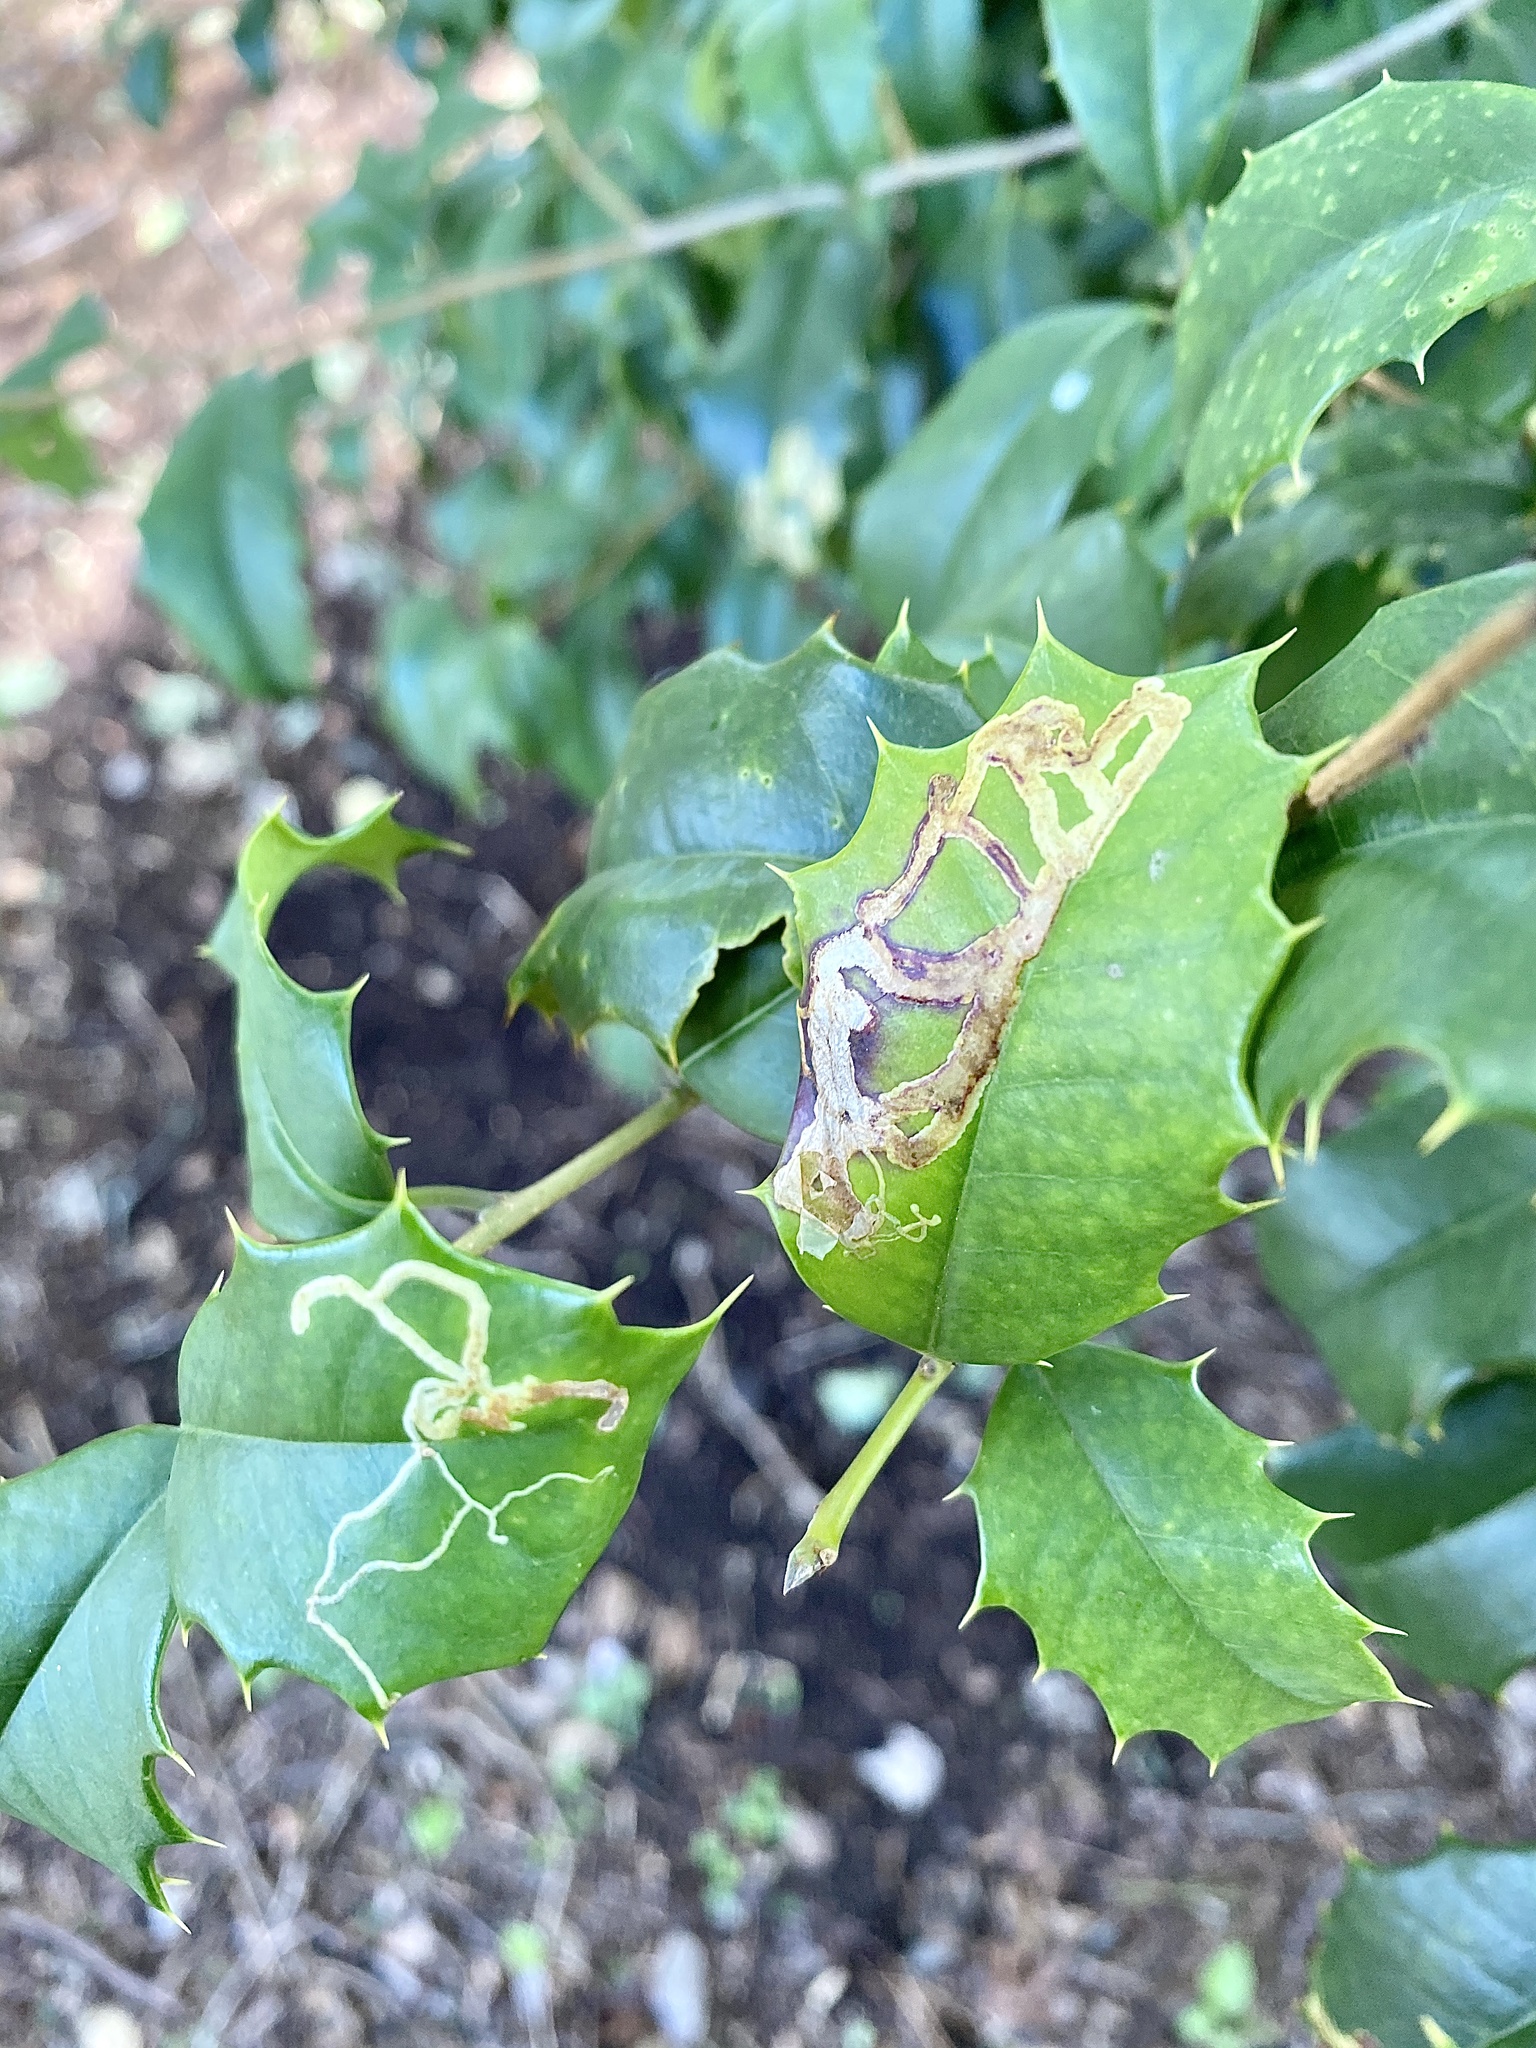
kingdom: Animalia
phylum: Arthropoda
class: Insecta
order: Diptera
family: Agromyzidae
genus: Phytomyza
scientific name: Phytomyza ilicicola
